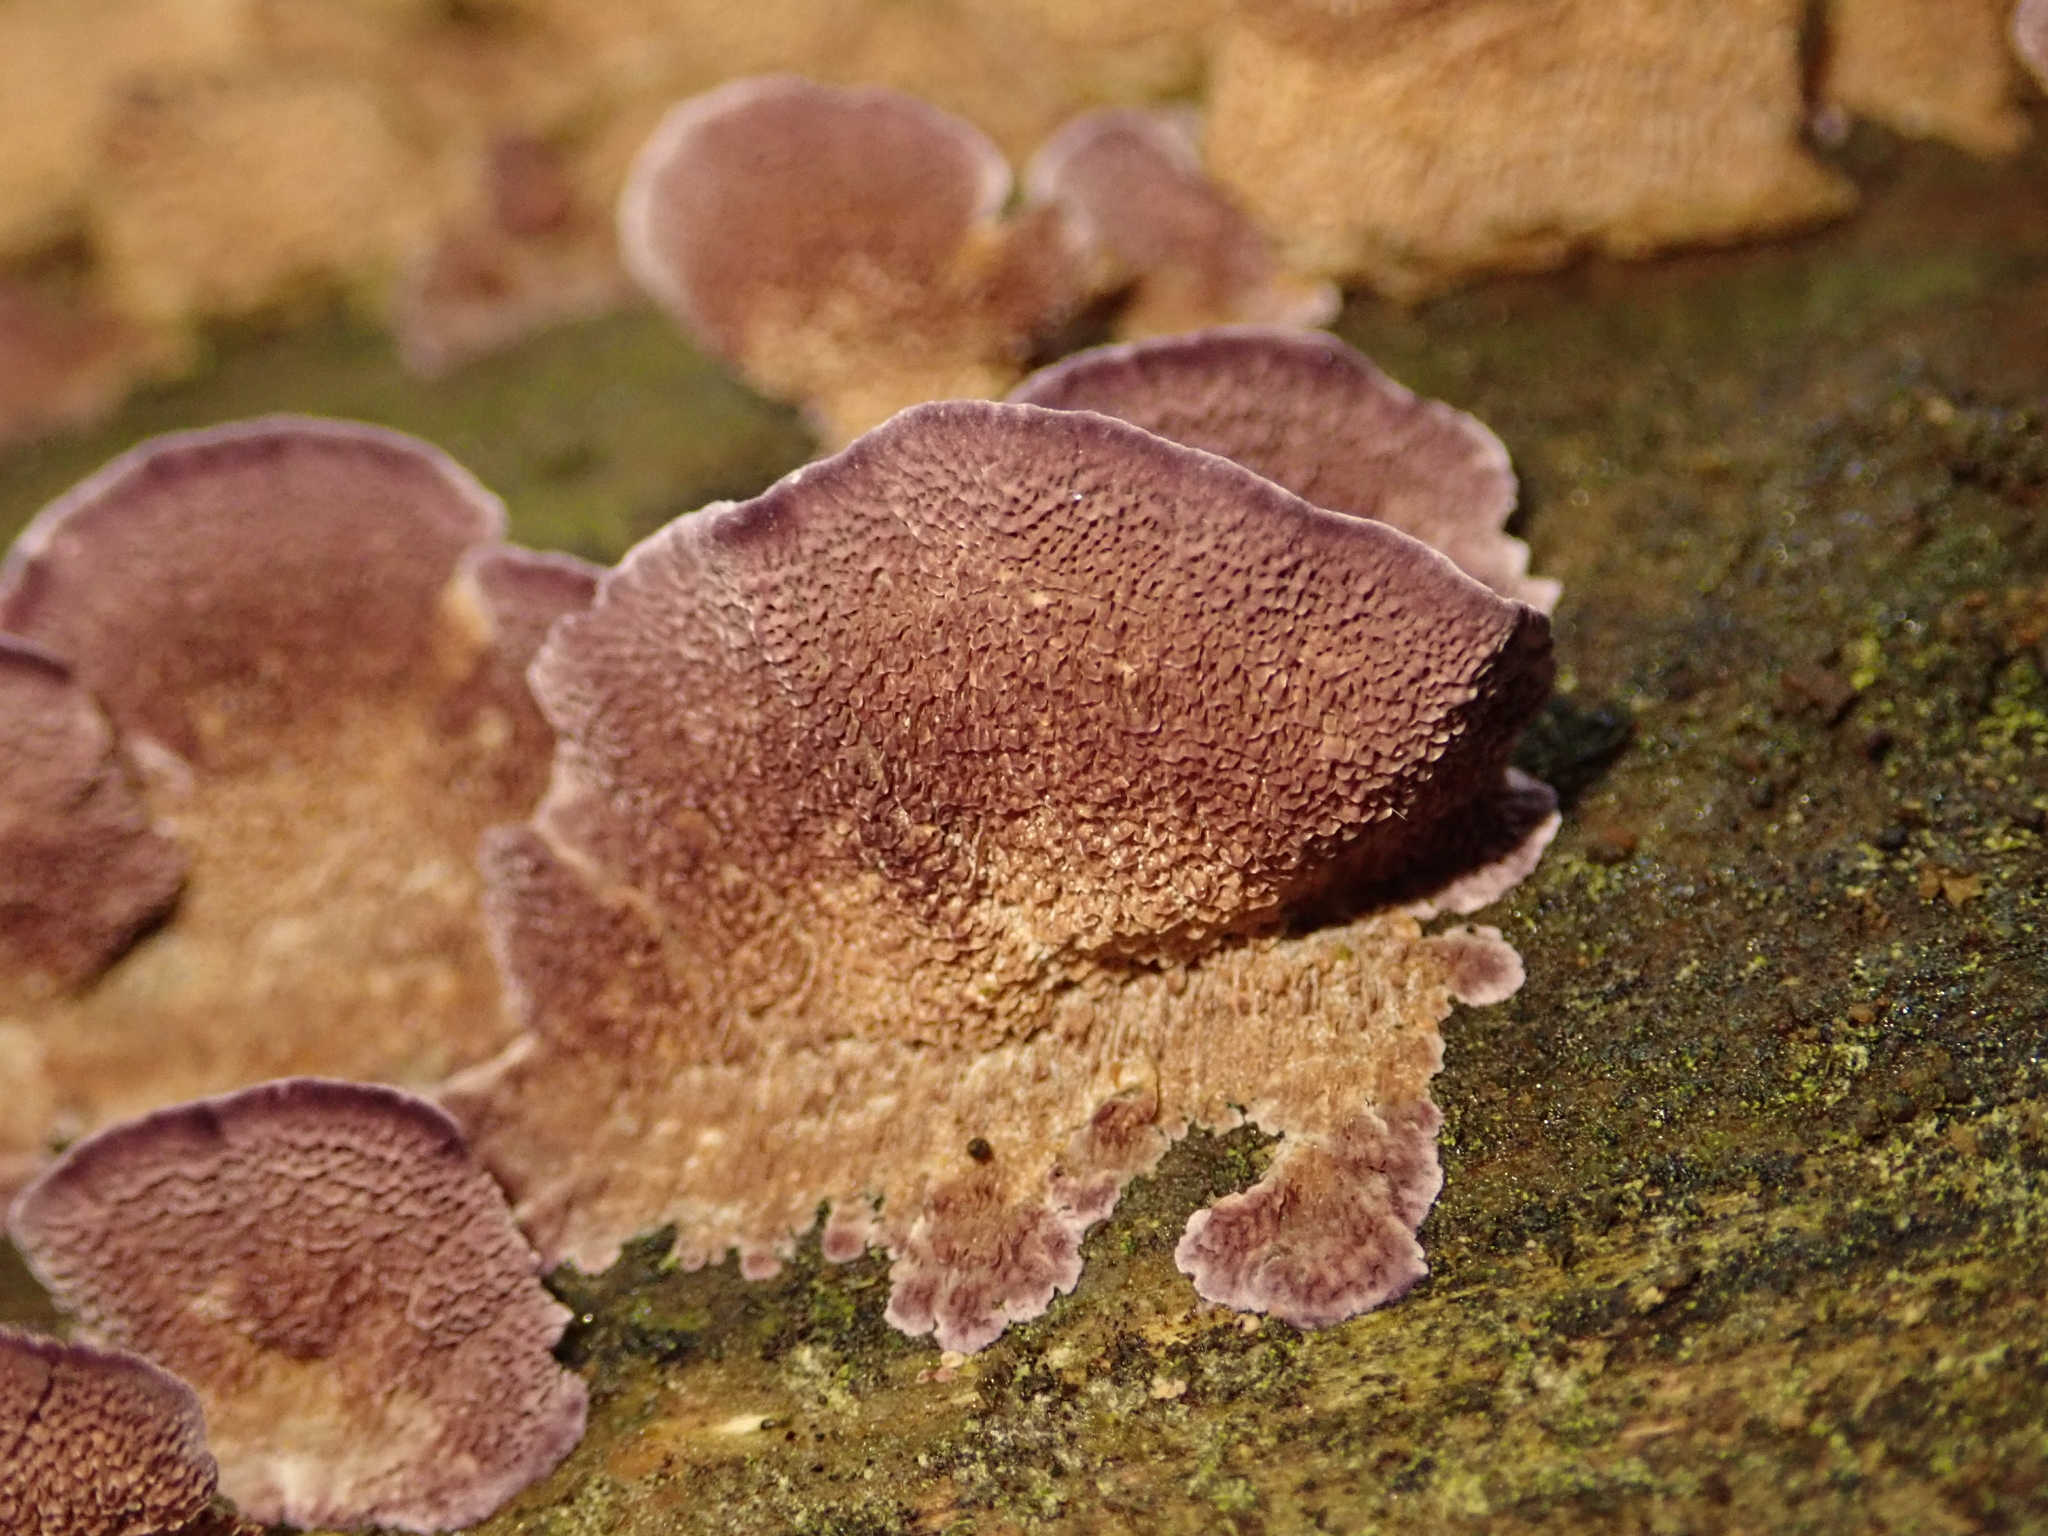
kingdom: Fungi
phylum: Basidiomycota
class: Agaricomycetes
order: Hymenochaetales
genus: Trichaptum
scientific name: Trichaptum abietinum
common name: Purplepore bracket
